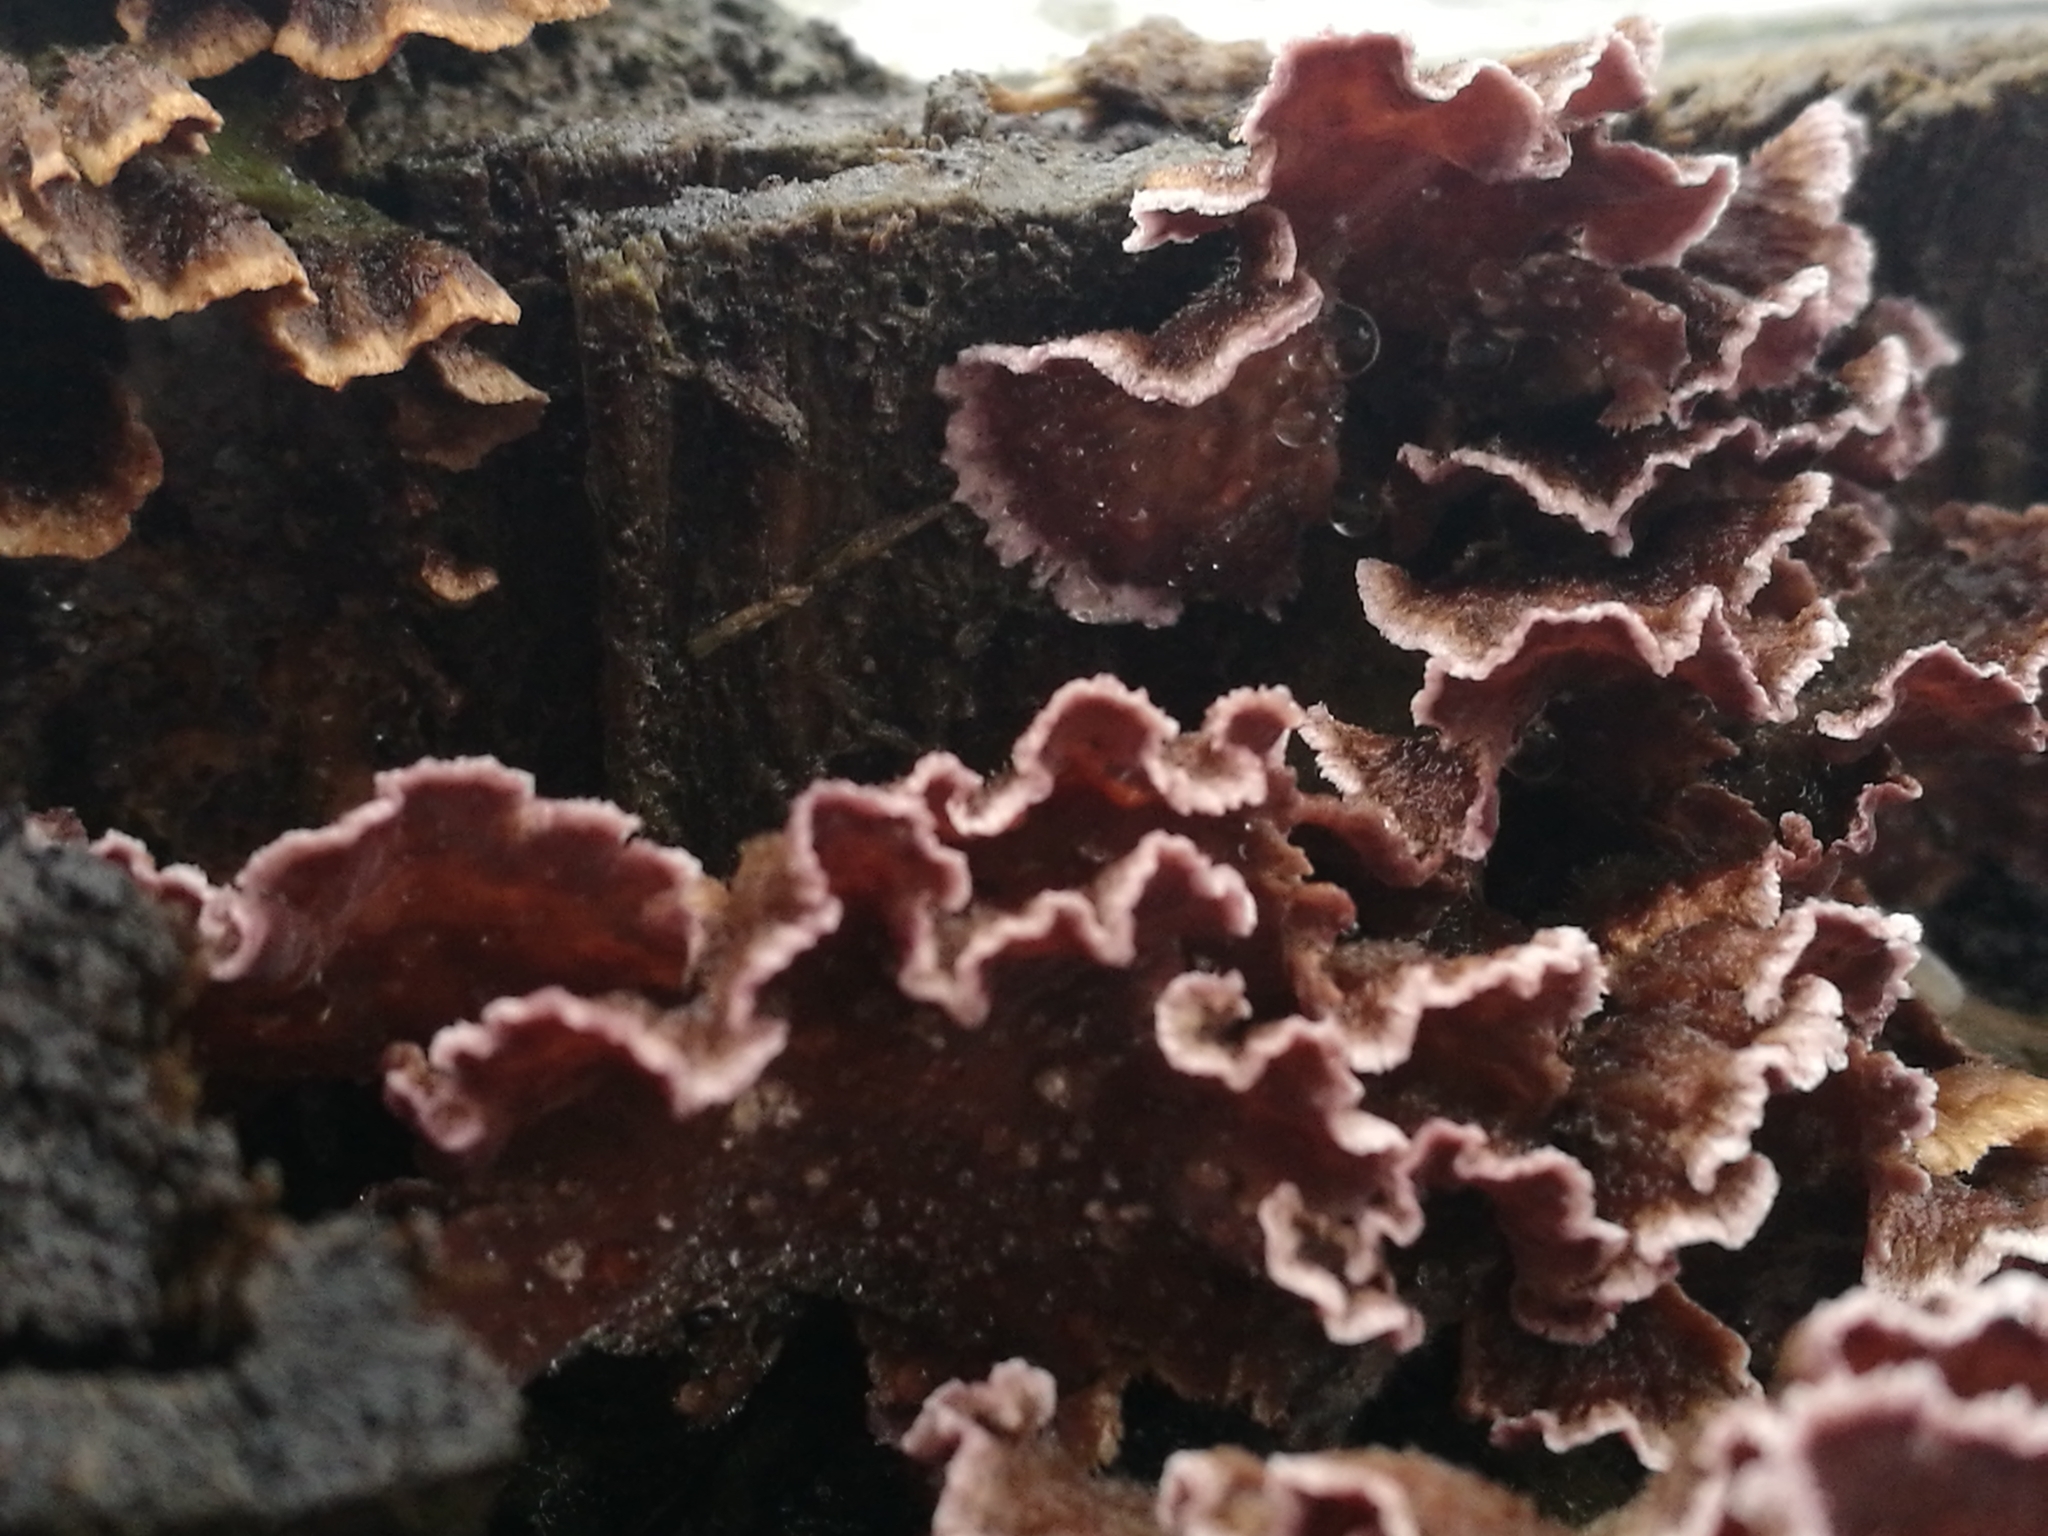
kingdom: Fungi
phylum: Basidiomycota
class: Agaricomycetes
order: Agaricales
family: Cyphellaceae
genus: Chondrostereum
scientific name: Chondrostereum purpureum
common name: Silver leaf disease
